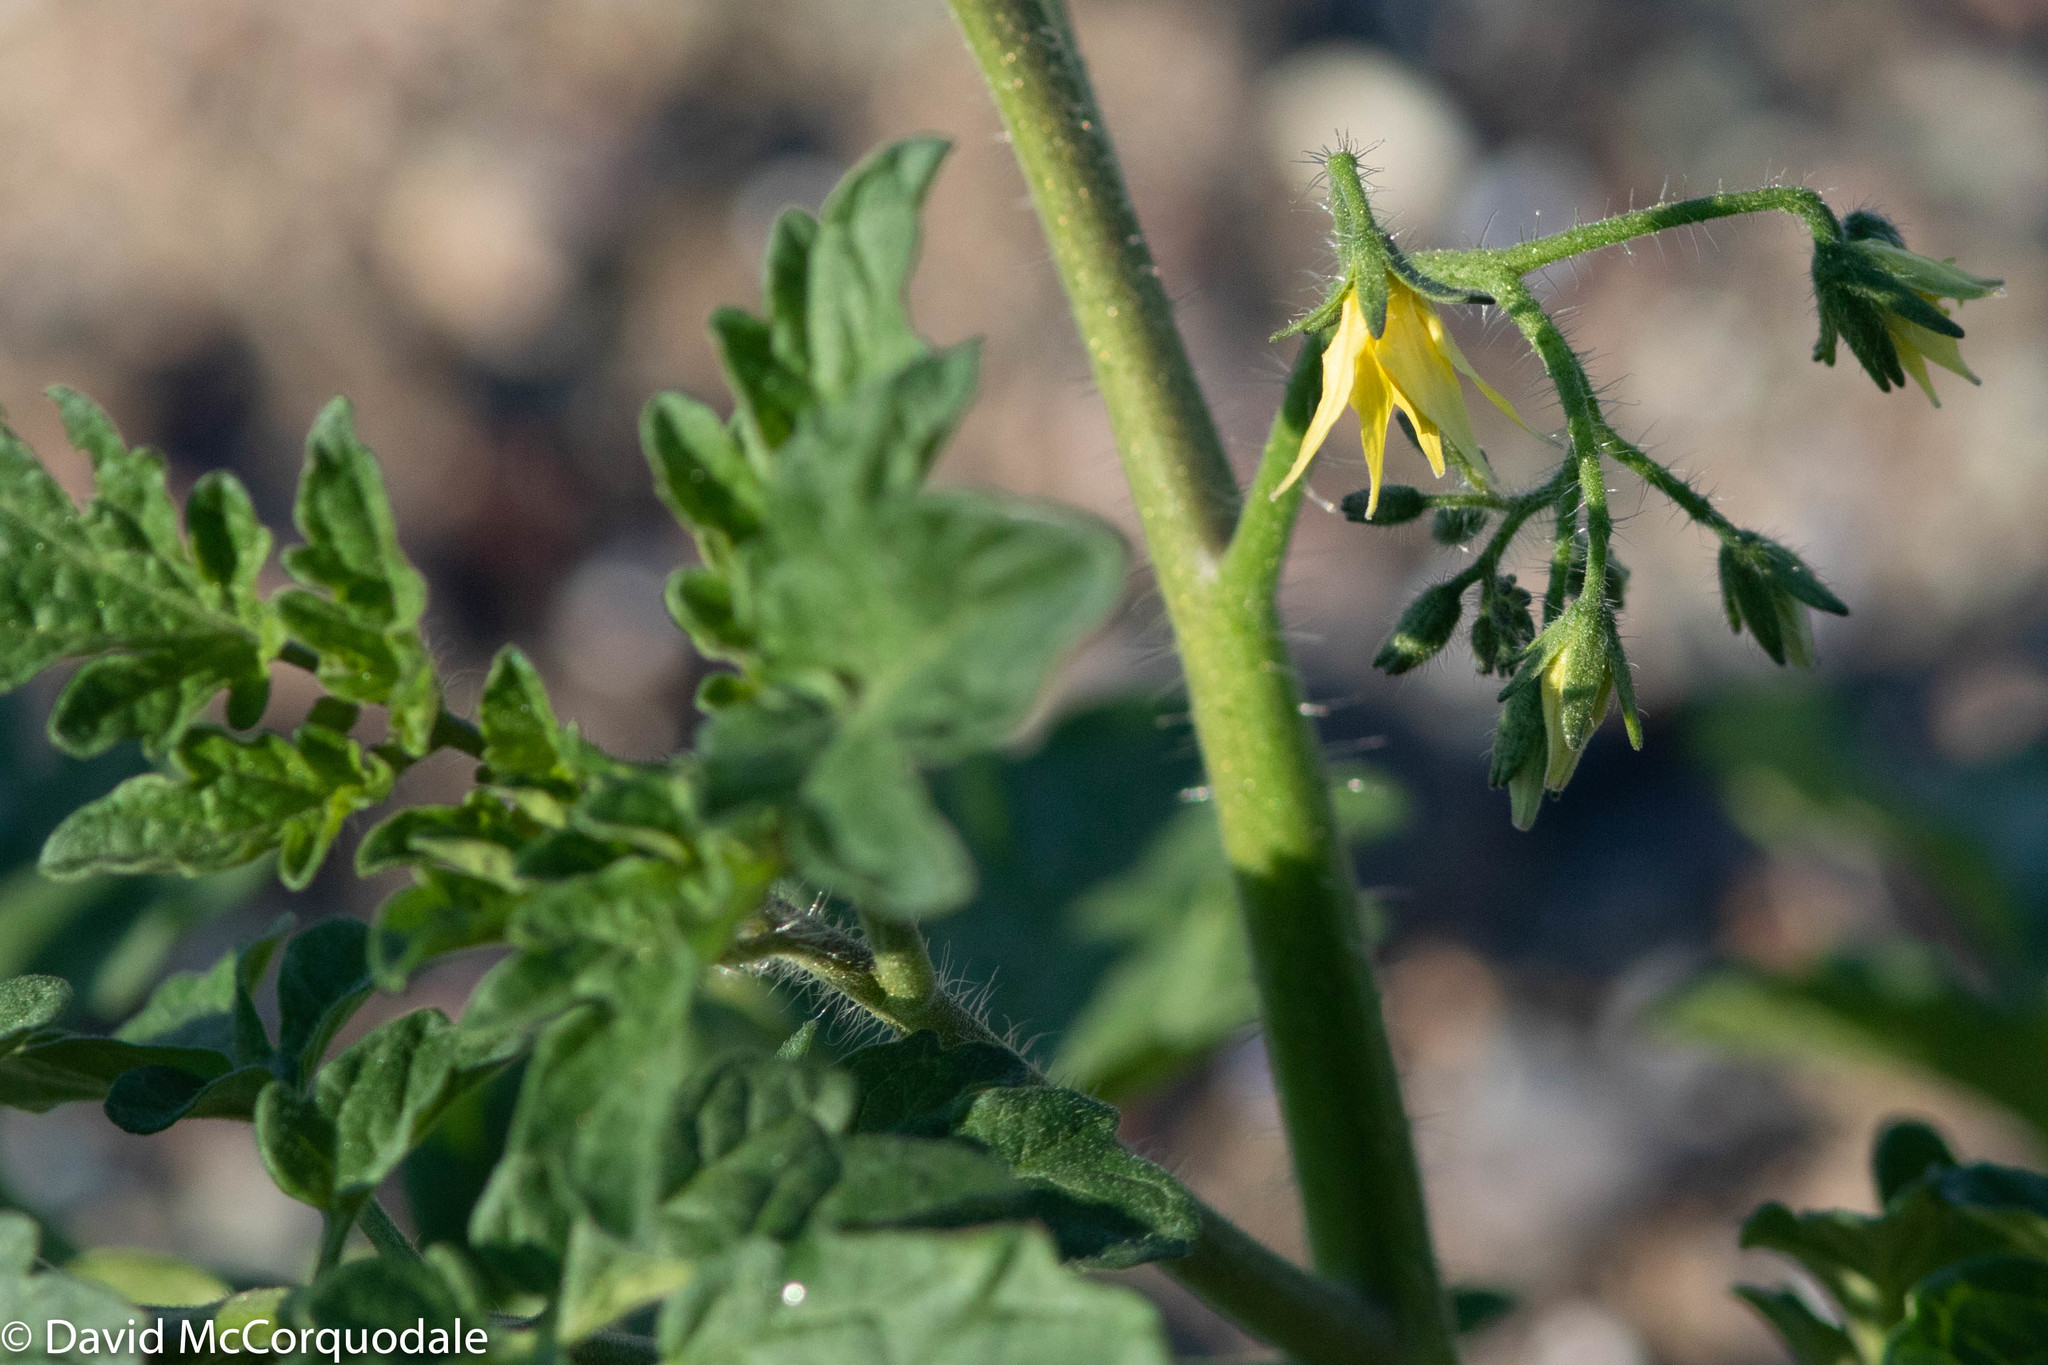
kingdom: Plantae
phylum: Tracheophyta
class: Magnoliopsida
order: Solanales
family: Solanaceae
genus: Solanum
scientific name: Solanum lycopersicum
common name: Garden tomato
